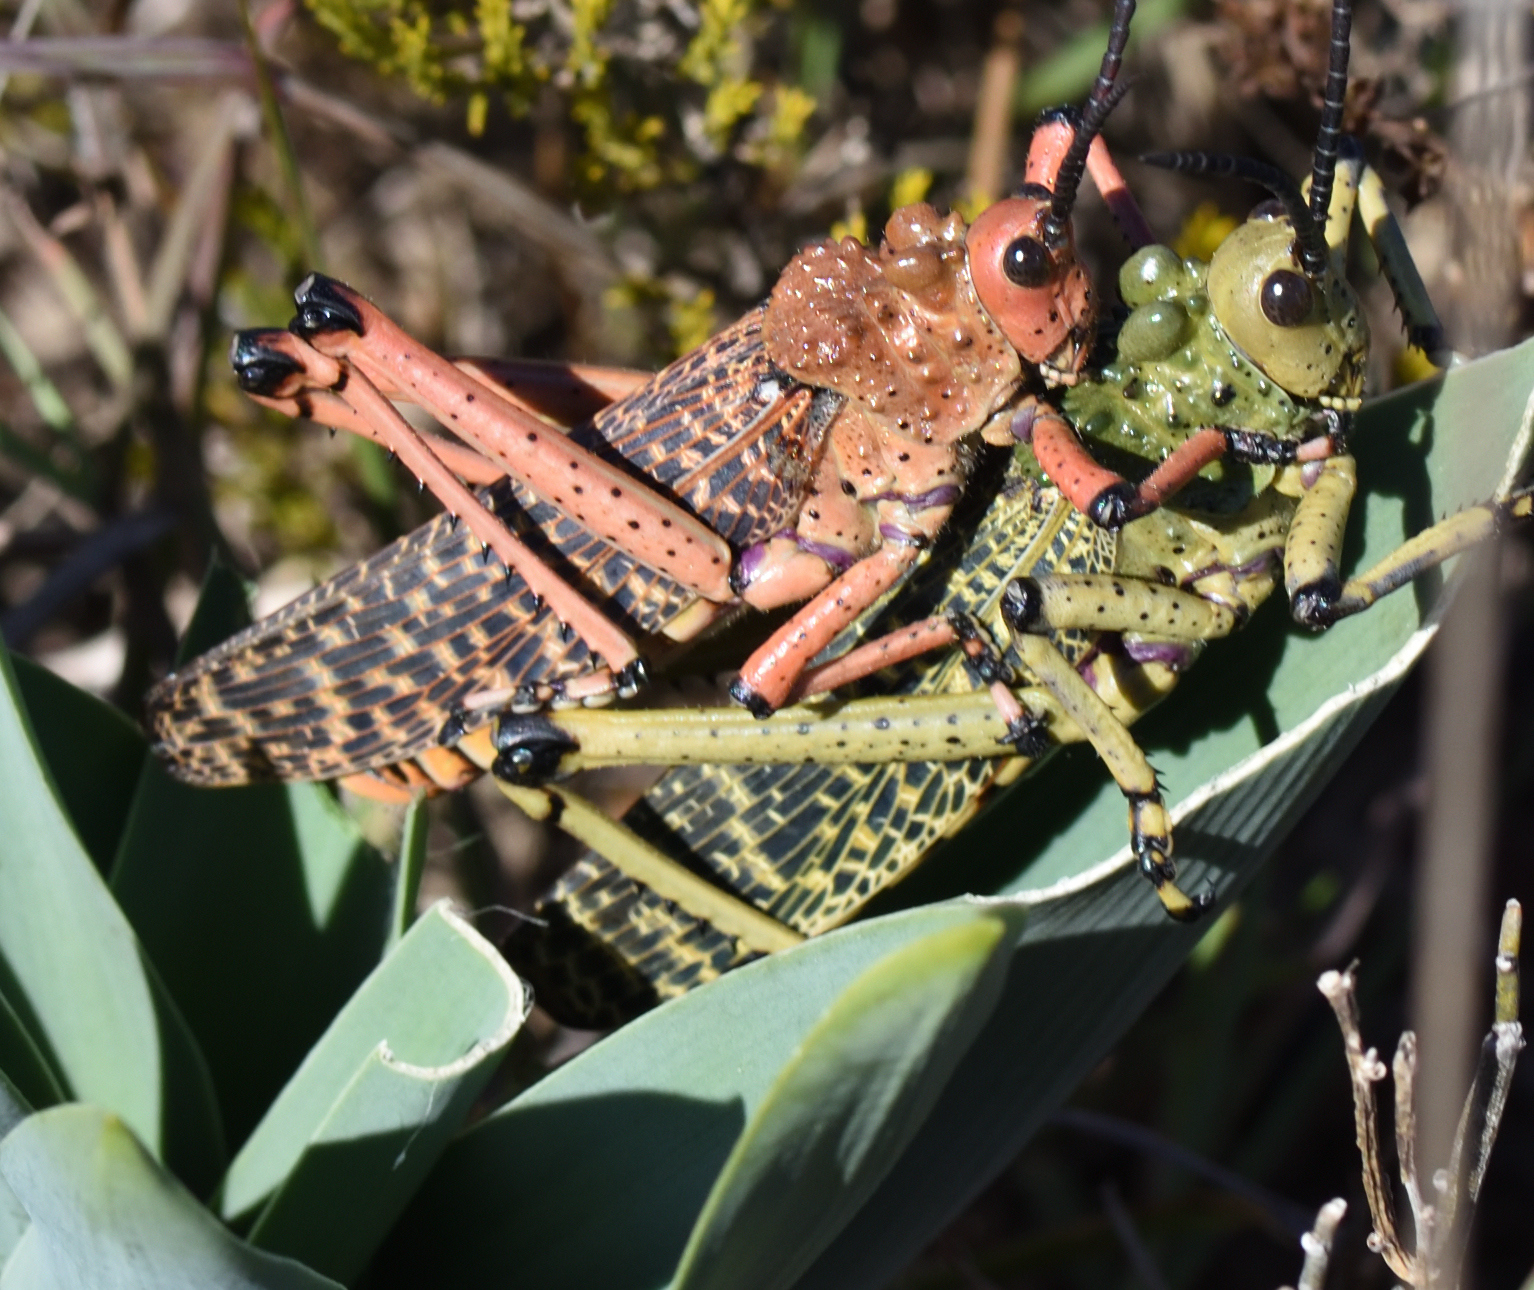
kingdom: Animalia
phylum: Arthropoda
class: Insecta
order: Orthoptera
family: Pyrgomorphidae
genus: Phymateus
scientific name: Phymateus leprosus
